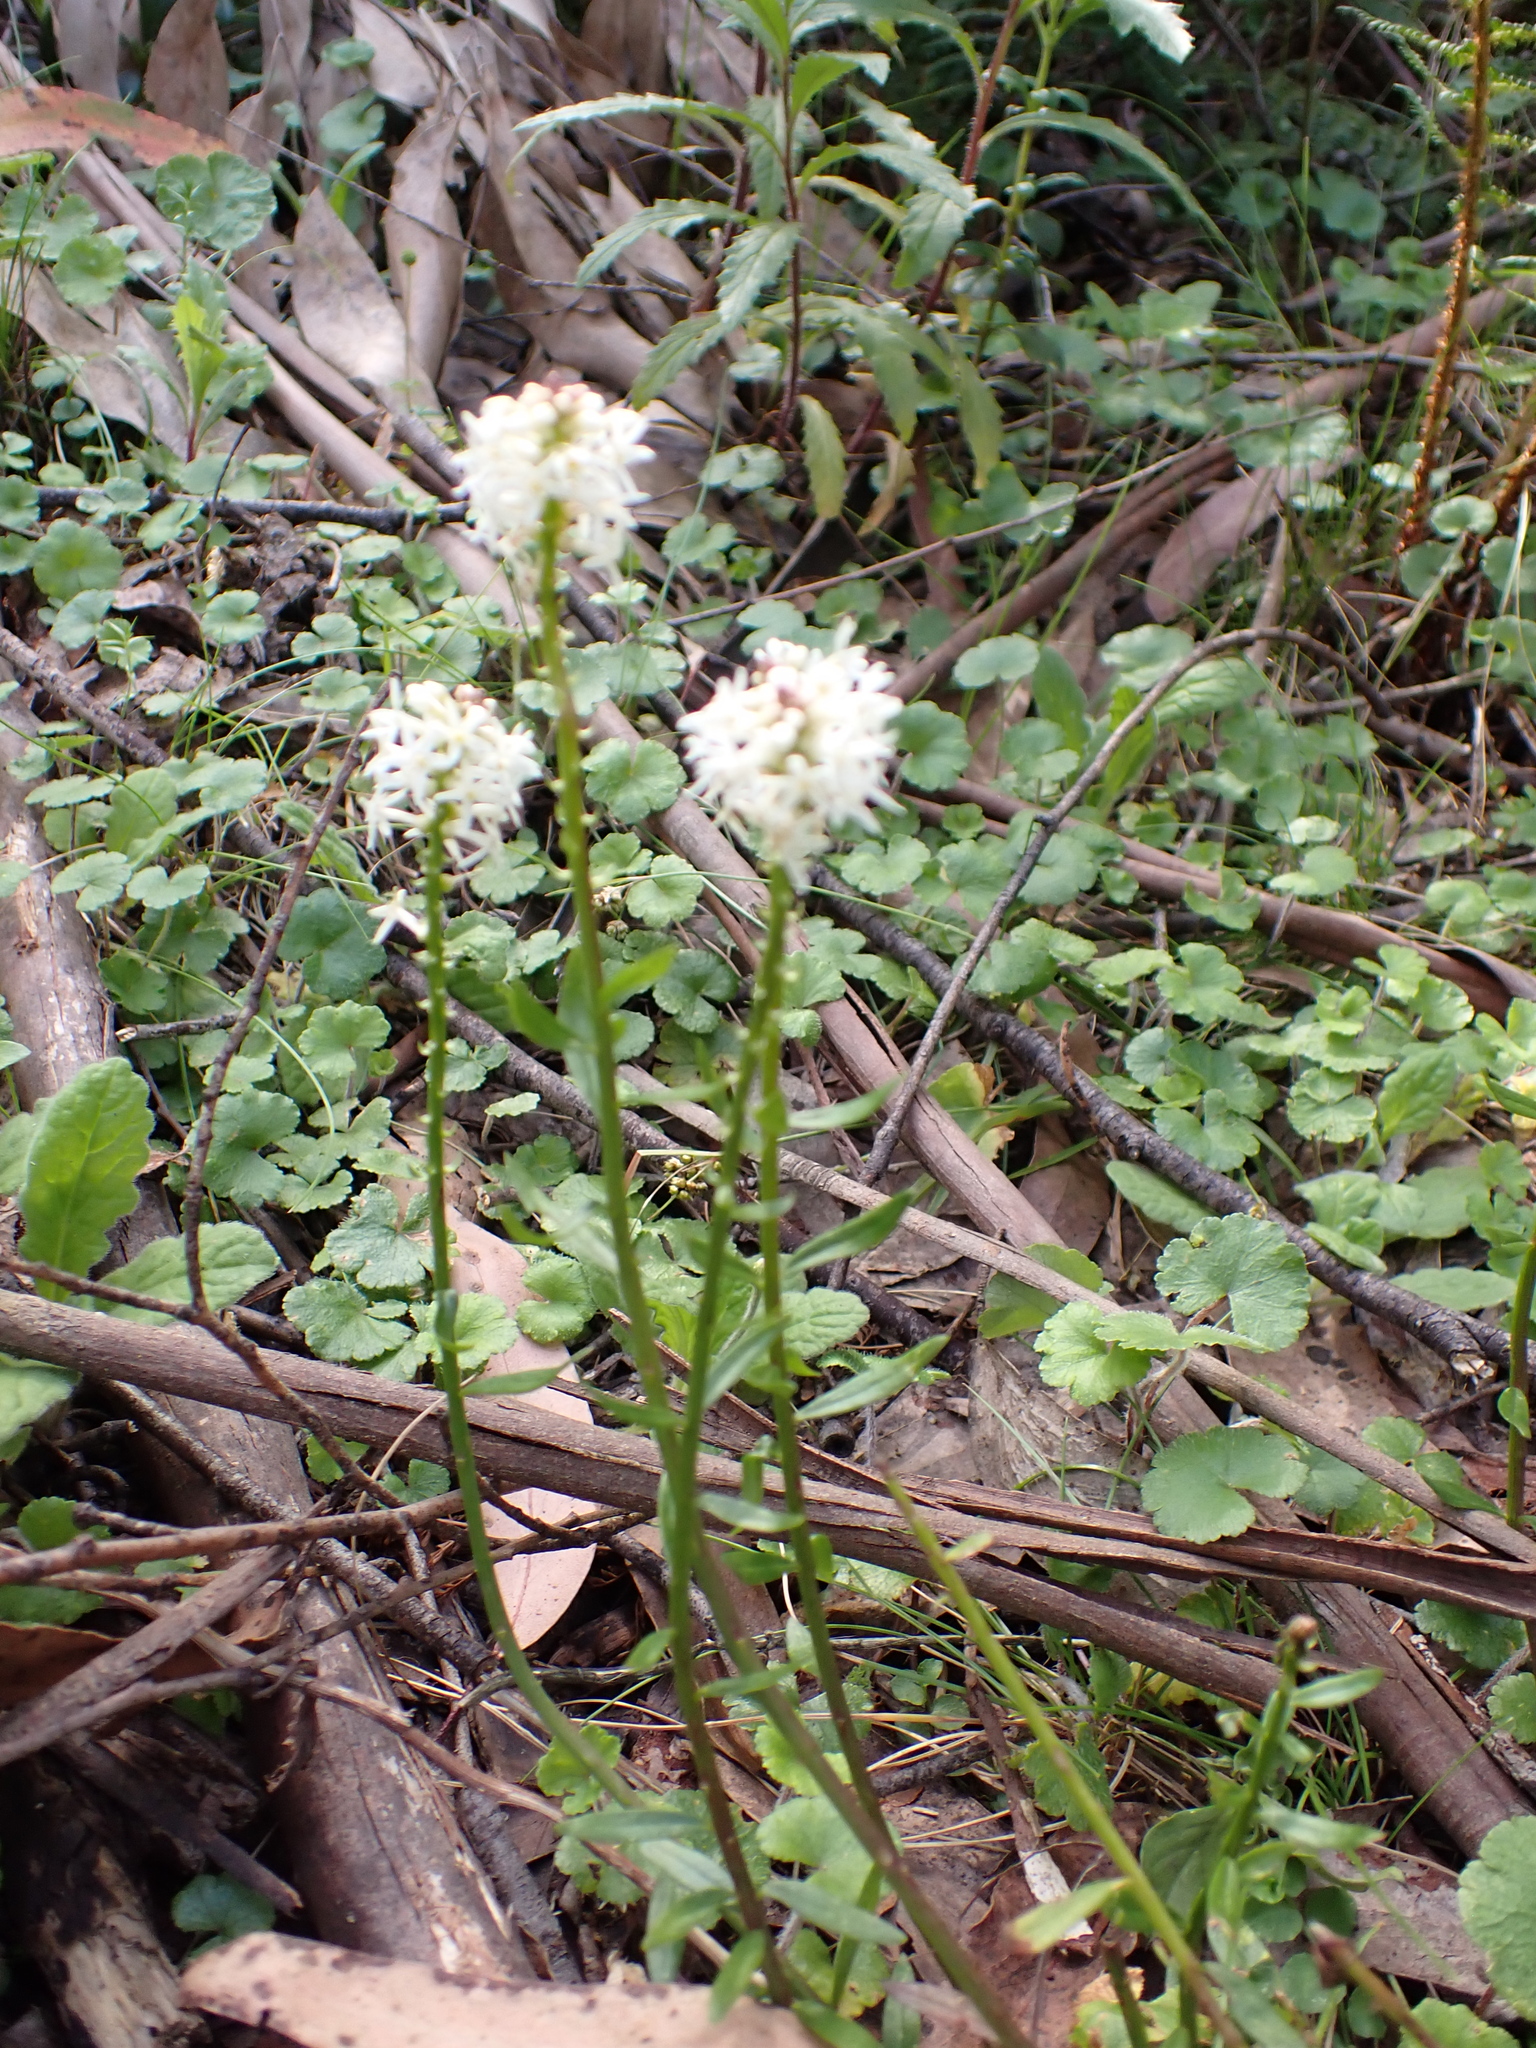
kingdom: Plantae
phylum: Tracheophyta
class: Magnoliopsida
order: Celastrales
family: Celastraceae
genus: Stackhousia
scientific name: Stackhousia monogyna
